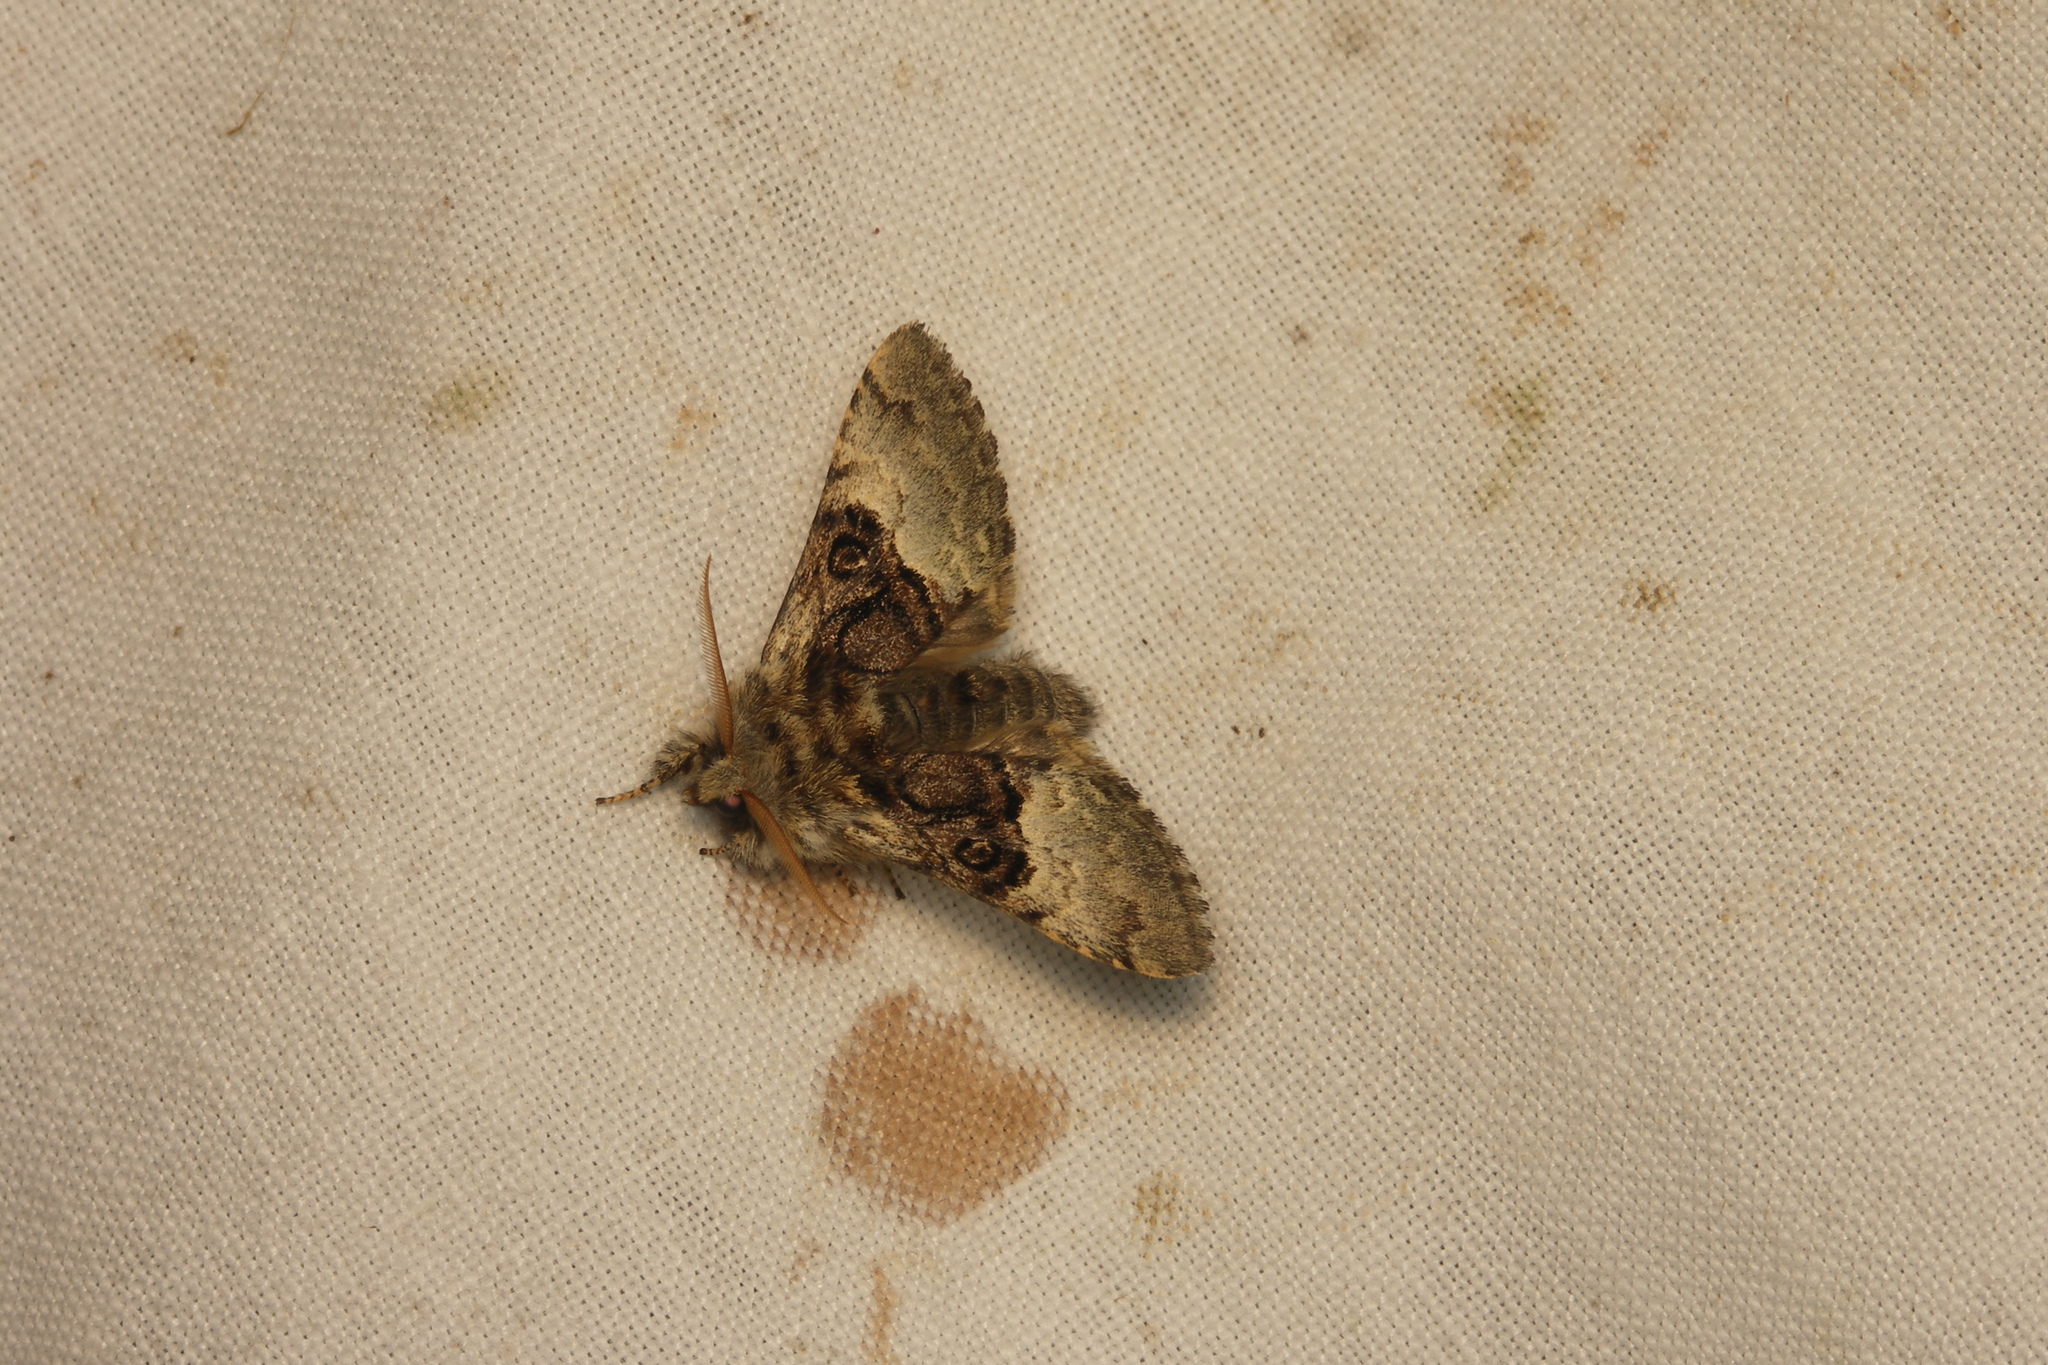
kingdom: Animalia
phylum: Arthropoda
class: Insecta
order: Lepidoptera
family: Noctuidae
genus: Colocasia
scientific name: Colocasia coryli
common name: Nut-tree tussock
